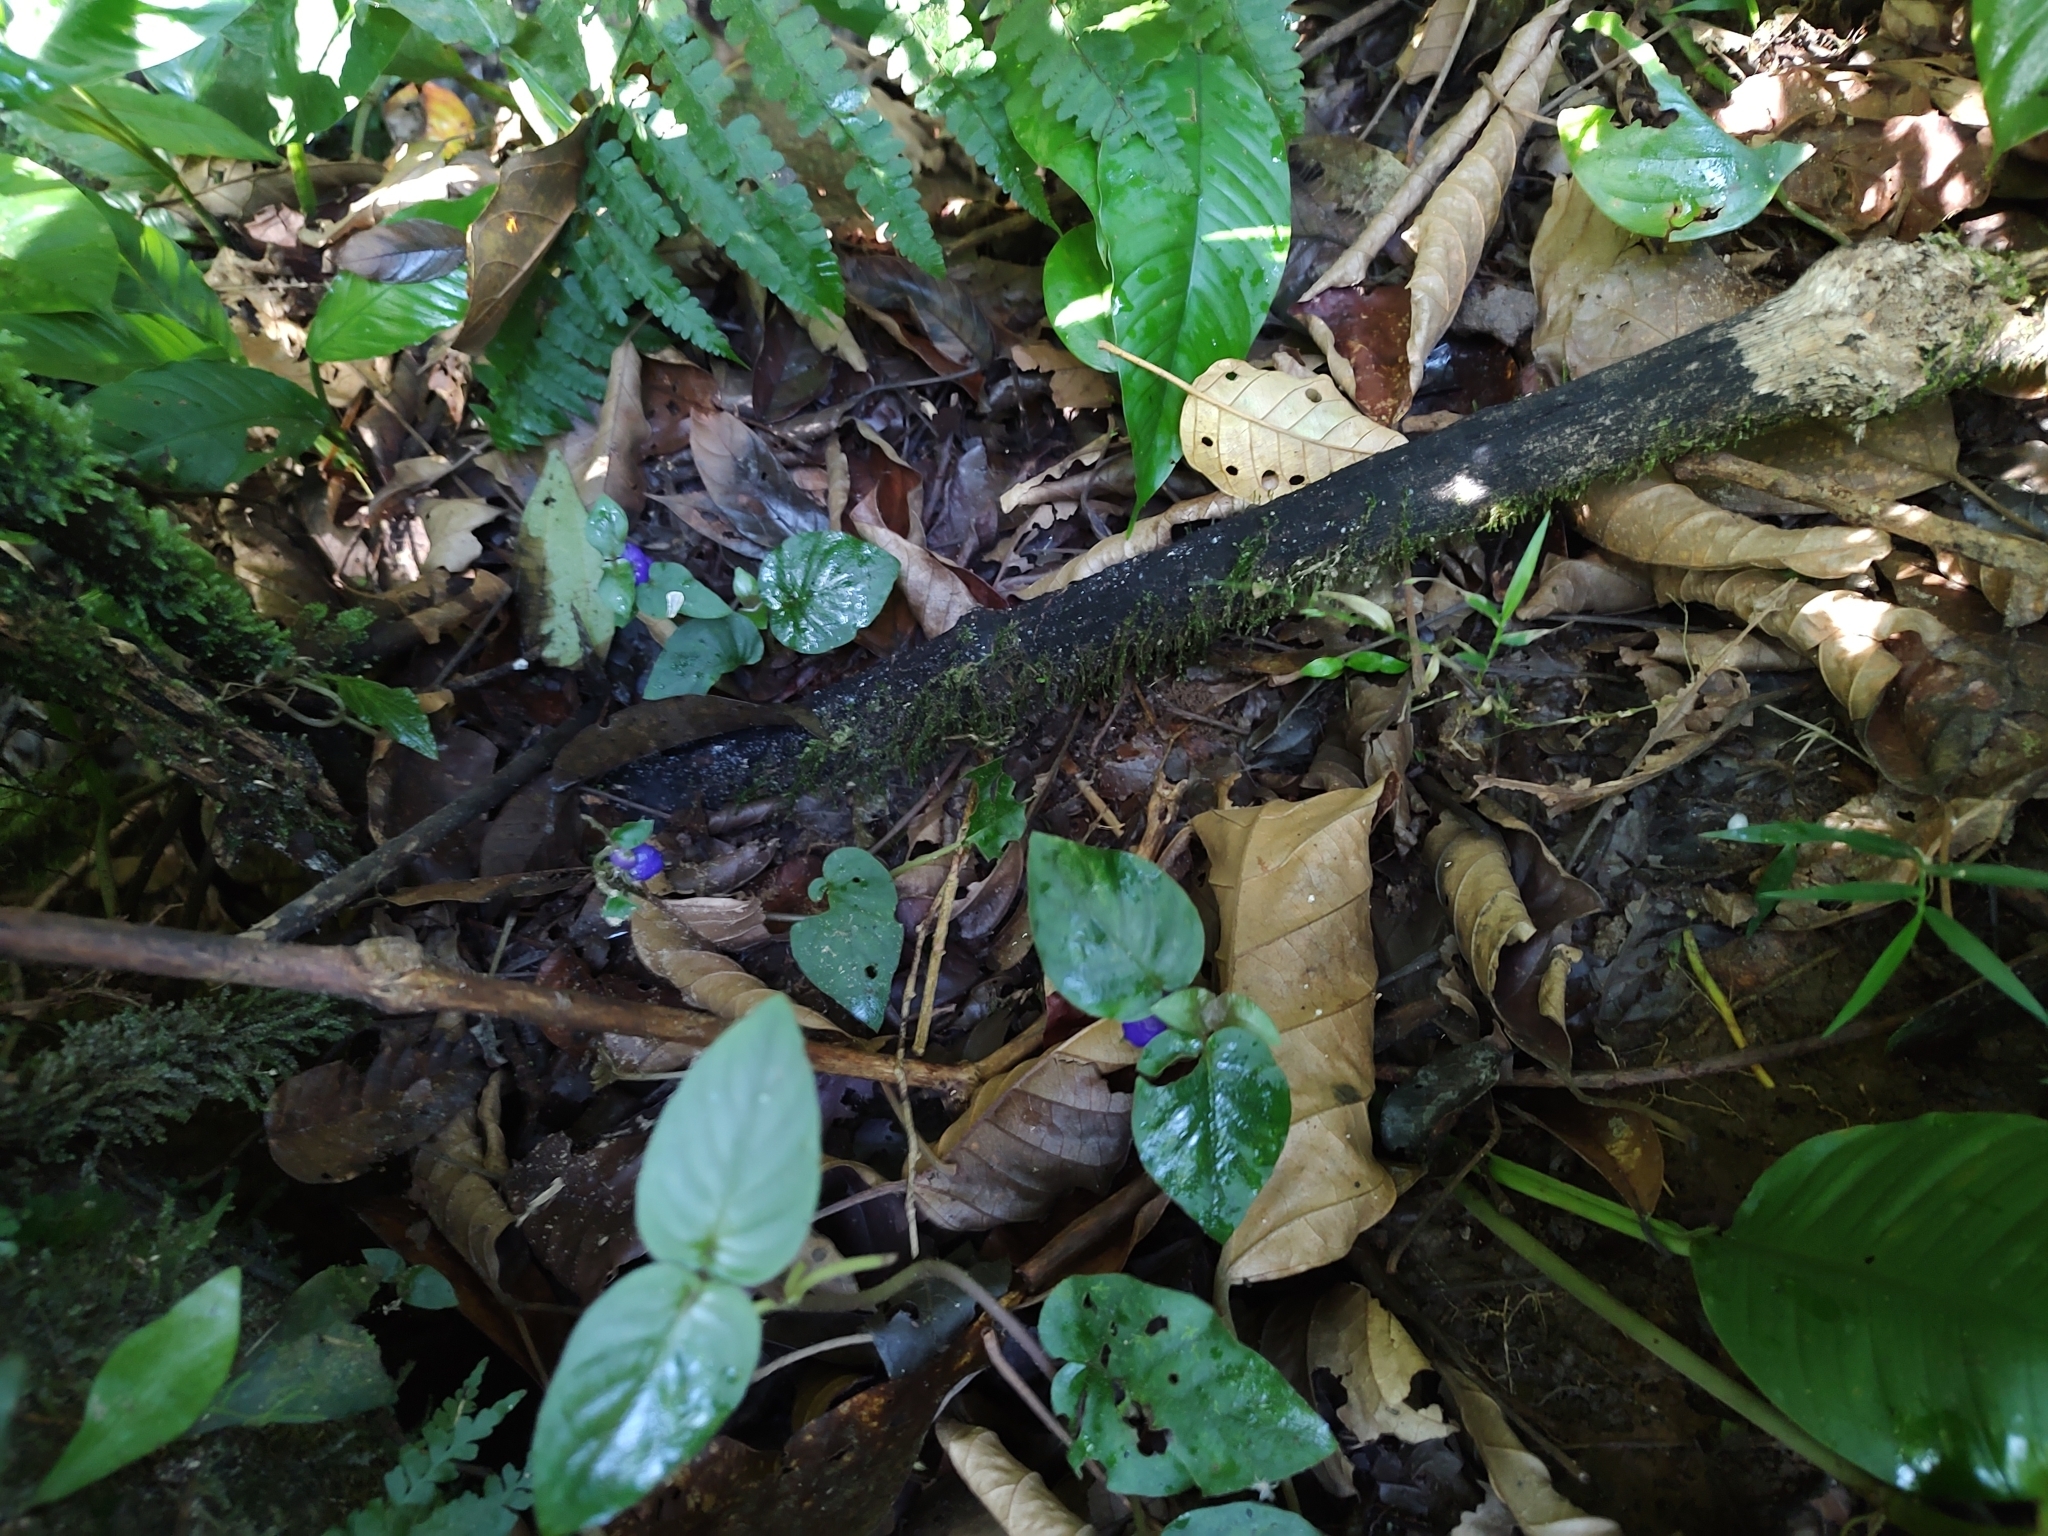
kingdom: Plantae
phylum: Tracheophyta
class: Magnoliopsida
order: Gentianales
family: Rubiaceae
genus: Coccocypselum
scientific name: Coccocypselum lanceolatum
